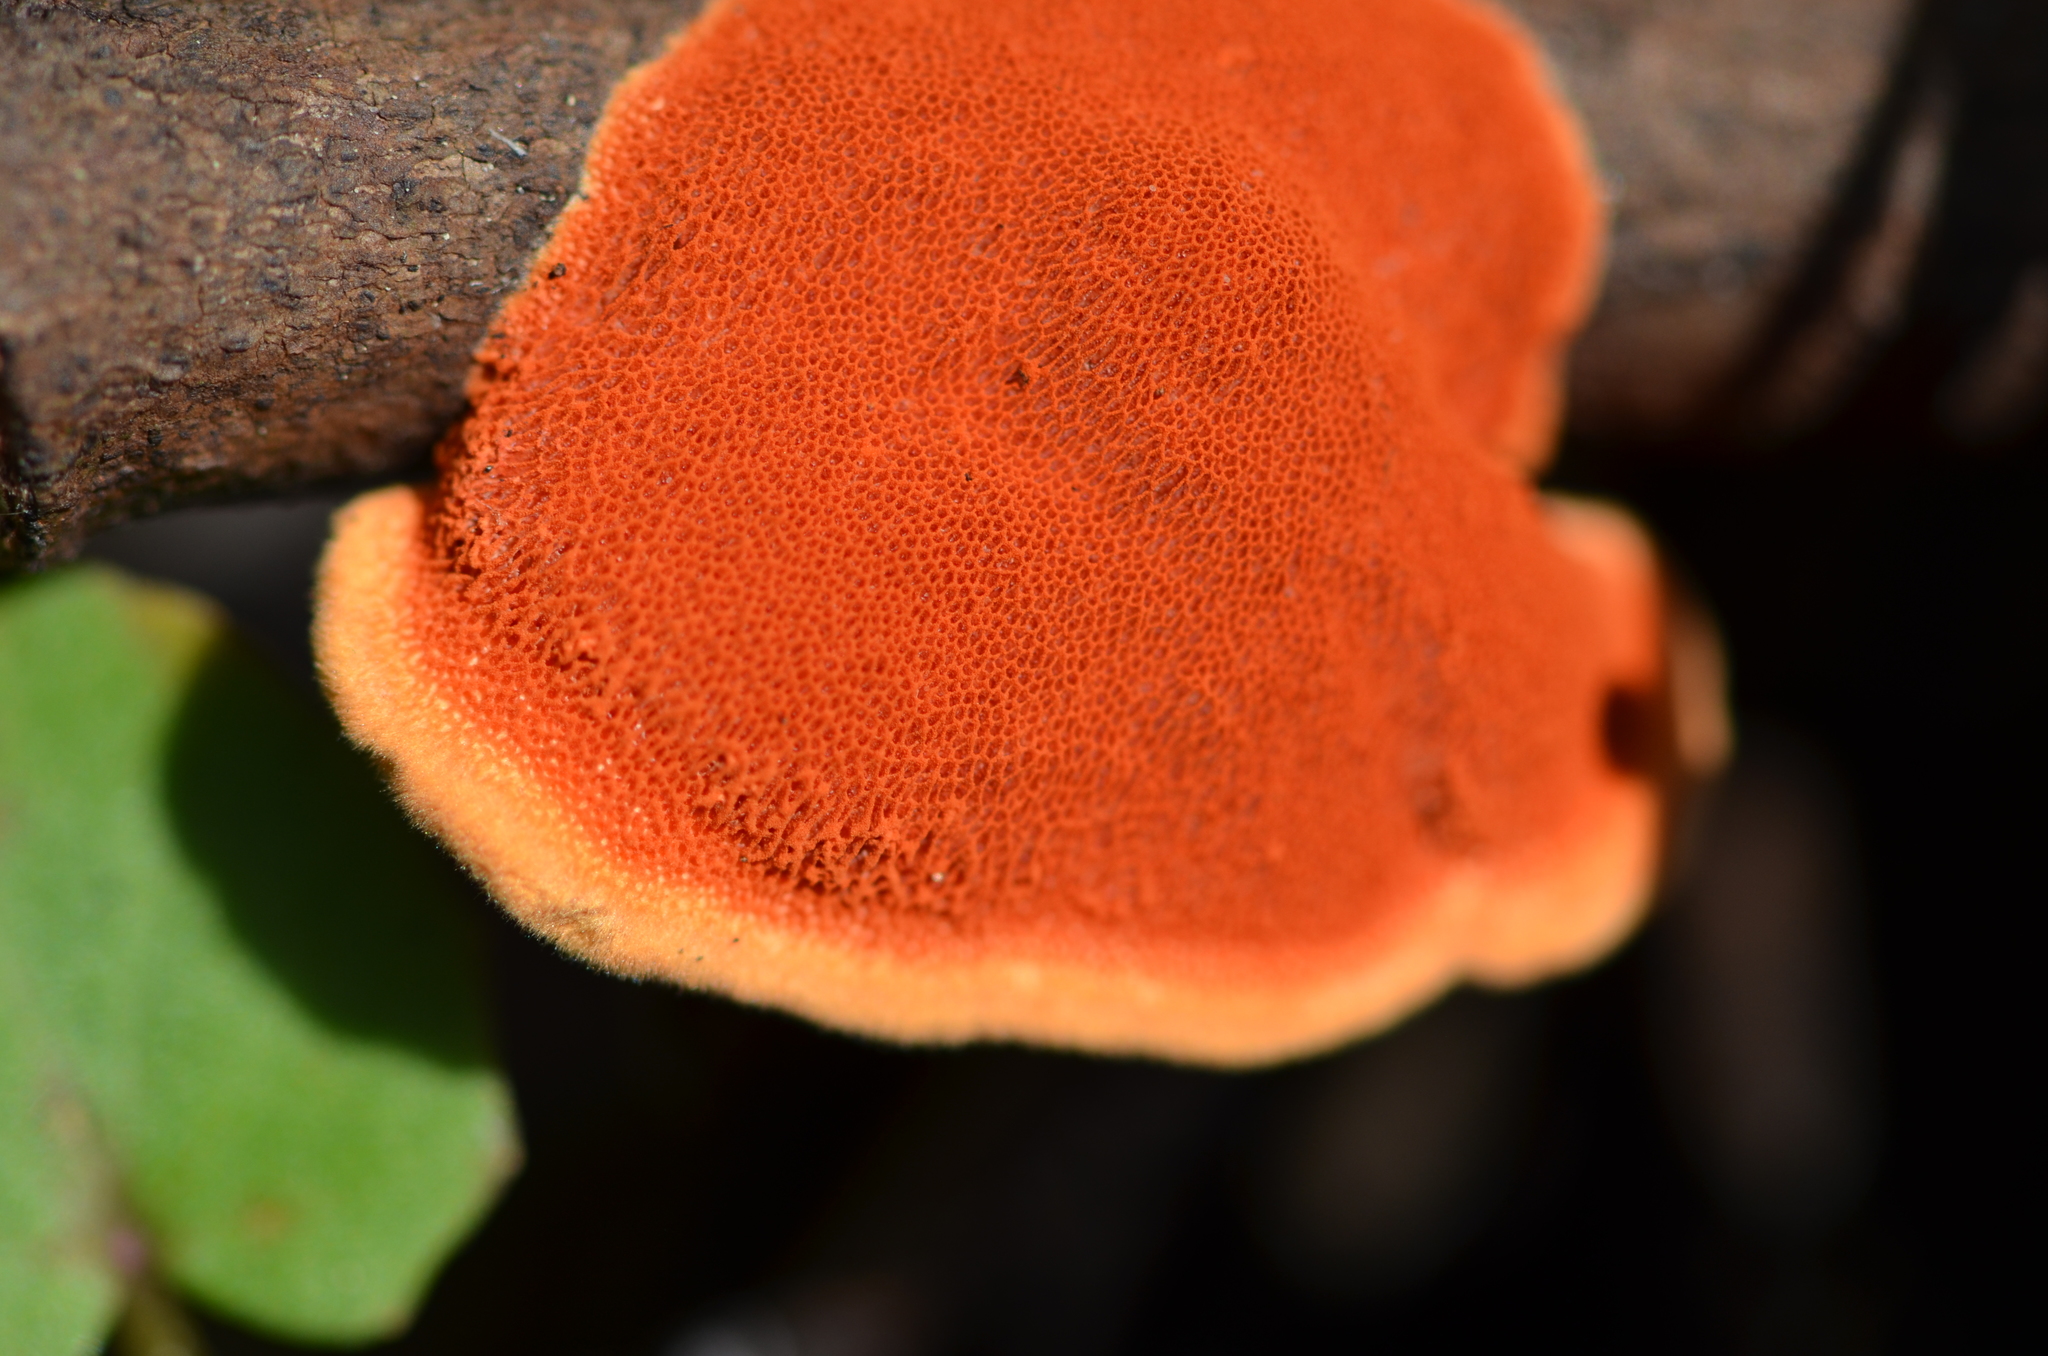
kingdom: Fungi
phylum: Basidiomycota
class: Agaricomycetes
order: Polyporales
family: Polyporaceae
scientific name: Polyporaceae
